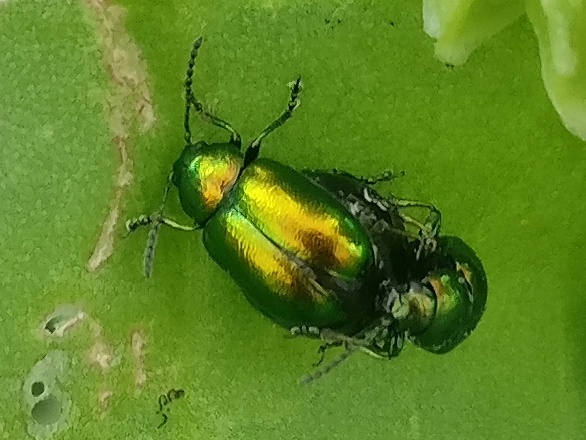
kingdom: Animalia
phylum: Arthropoda
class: Insecta
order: Coleoptera
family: Chrysomelidae
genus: Gastrophysa
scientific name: Gastrophysa viridula
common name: Green dock beetle
